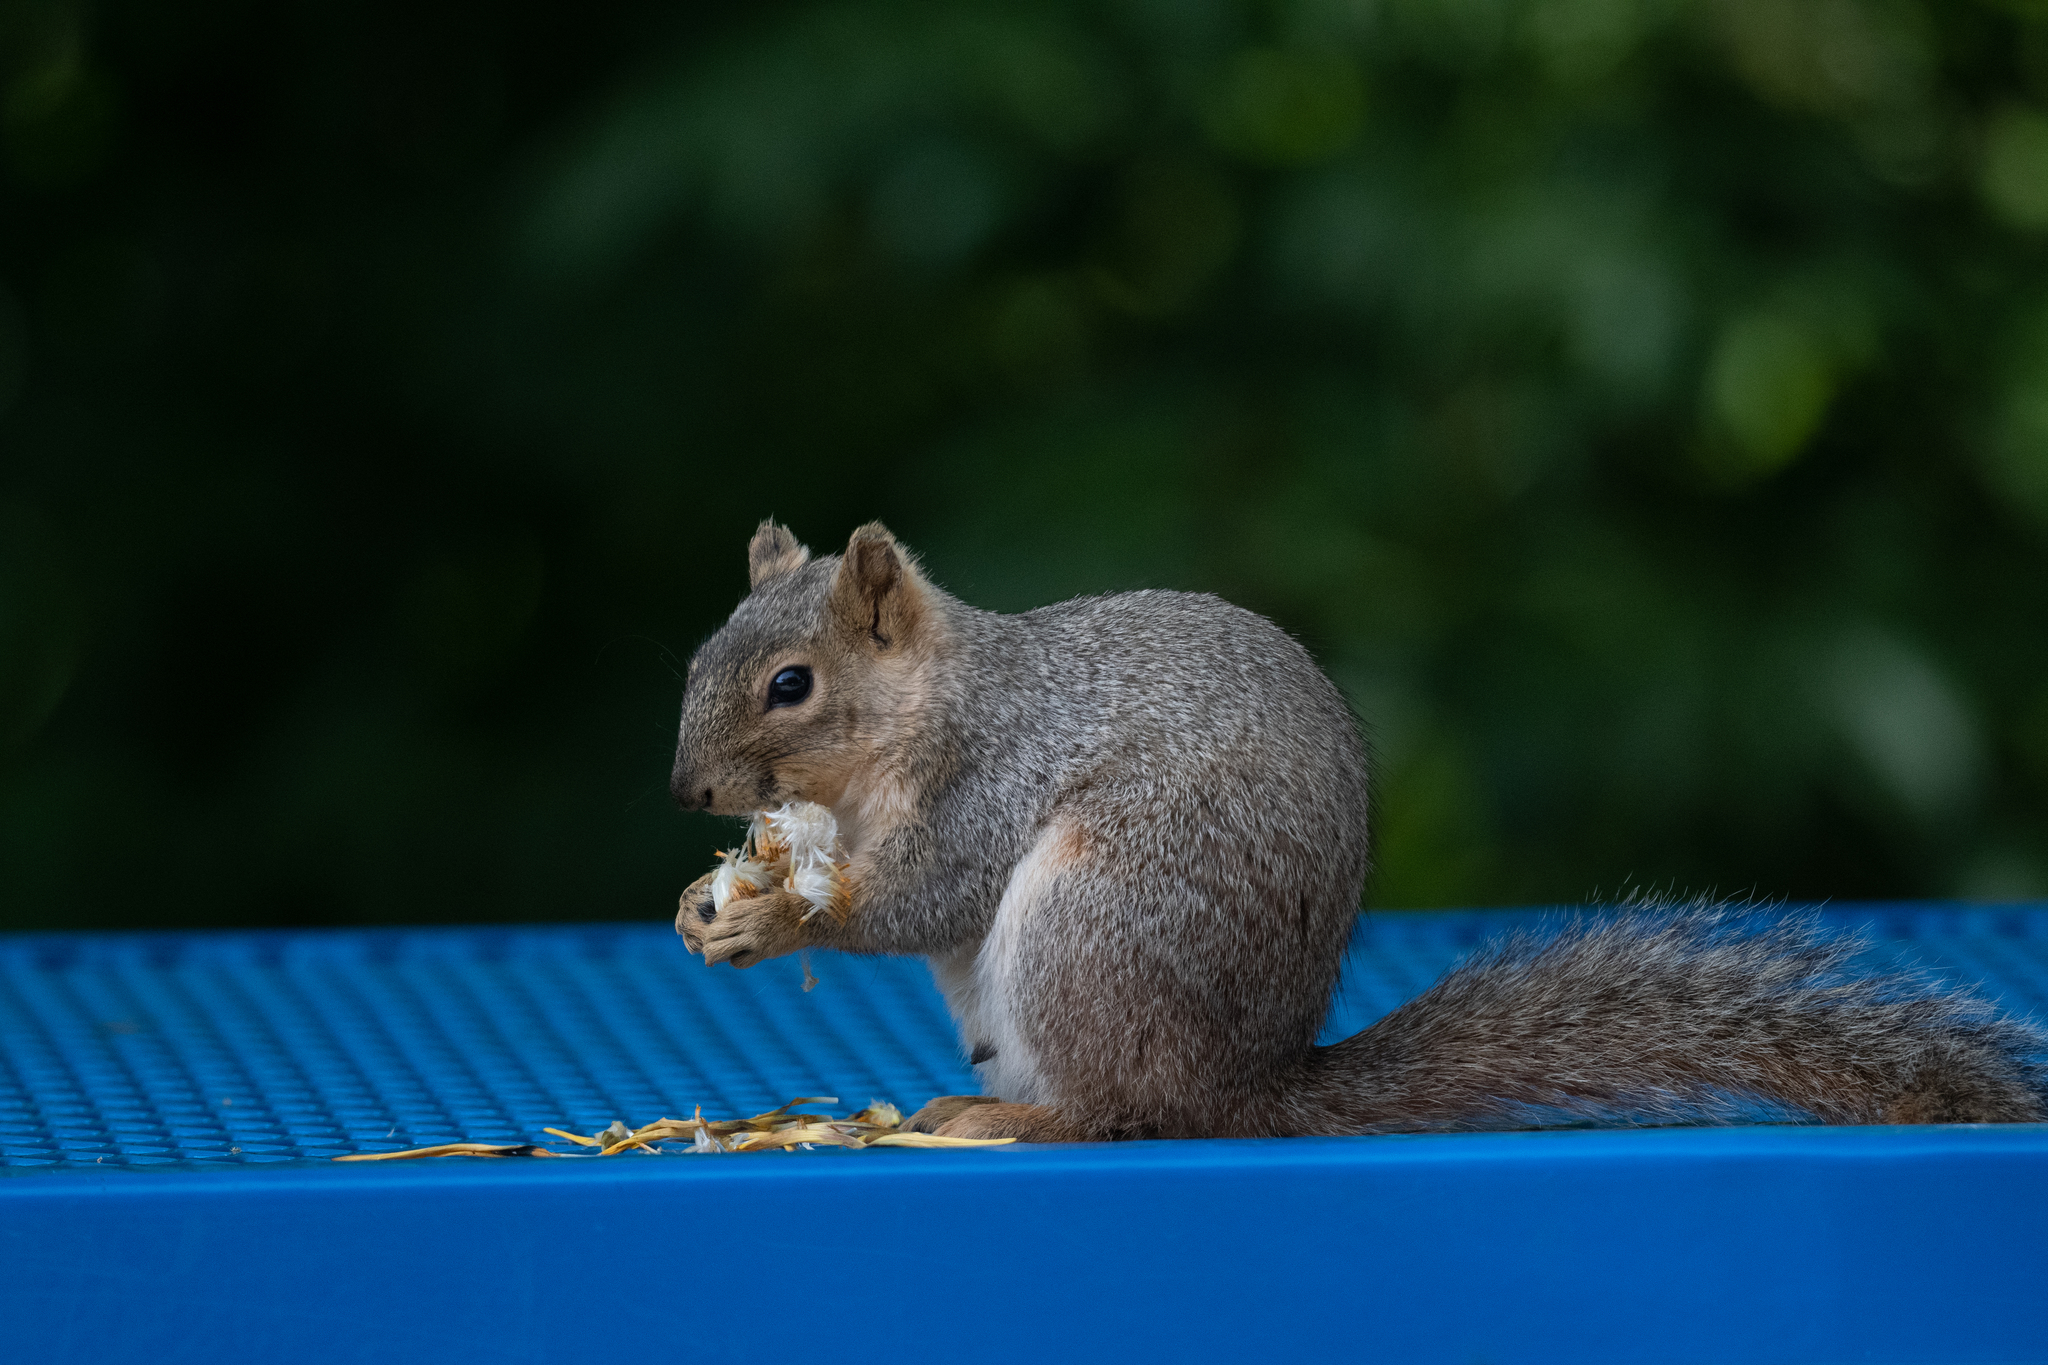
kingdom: Animalia
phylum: Chordata
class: Mammalia
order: Rodentia
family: Sciuridae
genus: Sciurus
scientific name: Sciurus niger
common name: Fox squirrel
